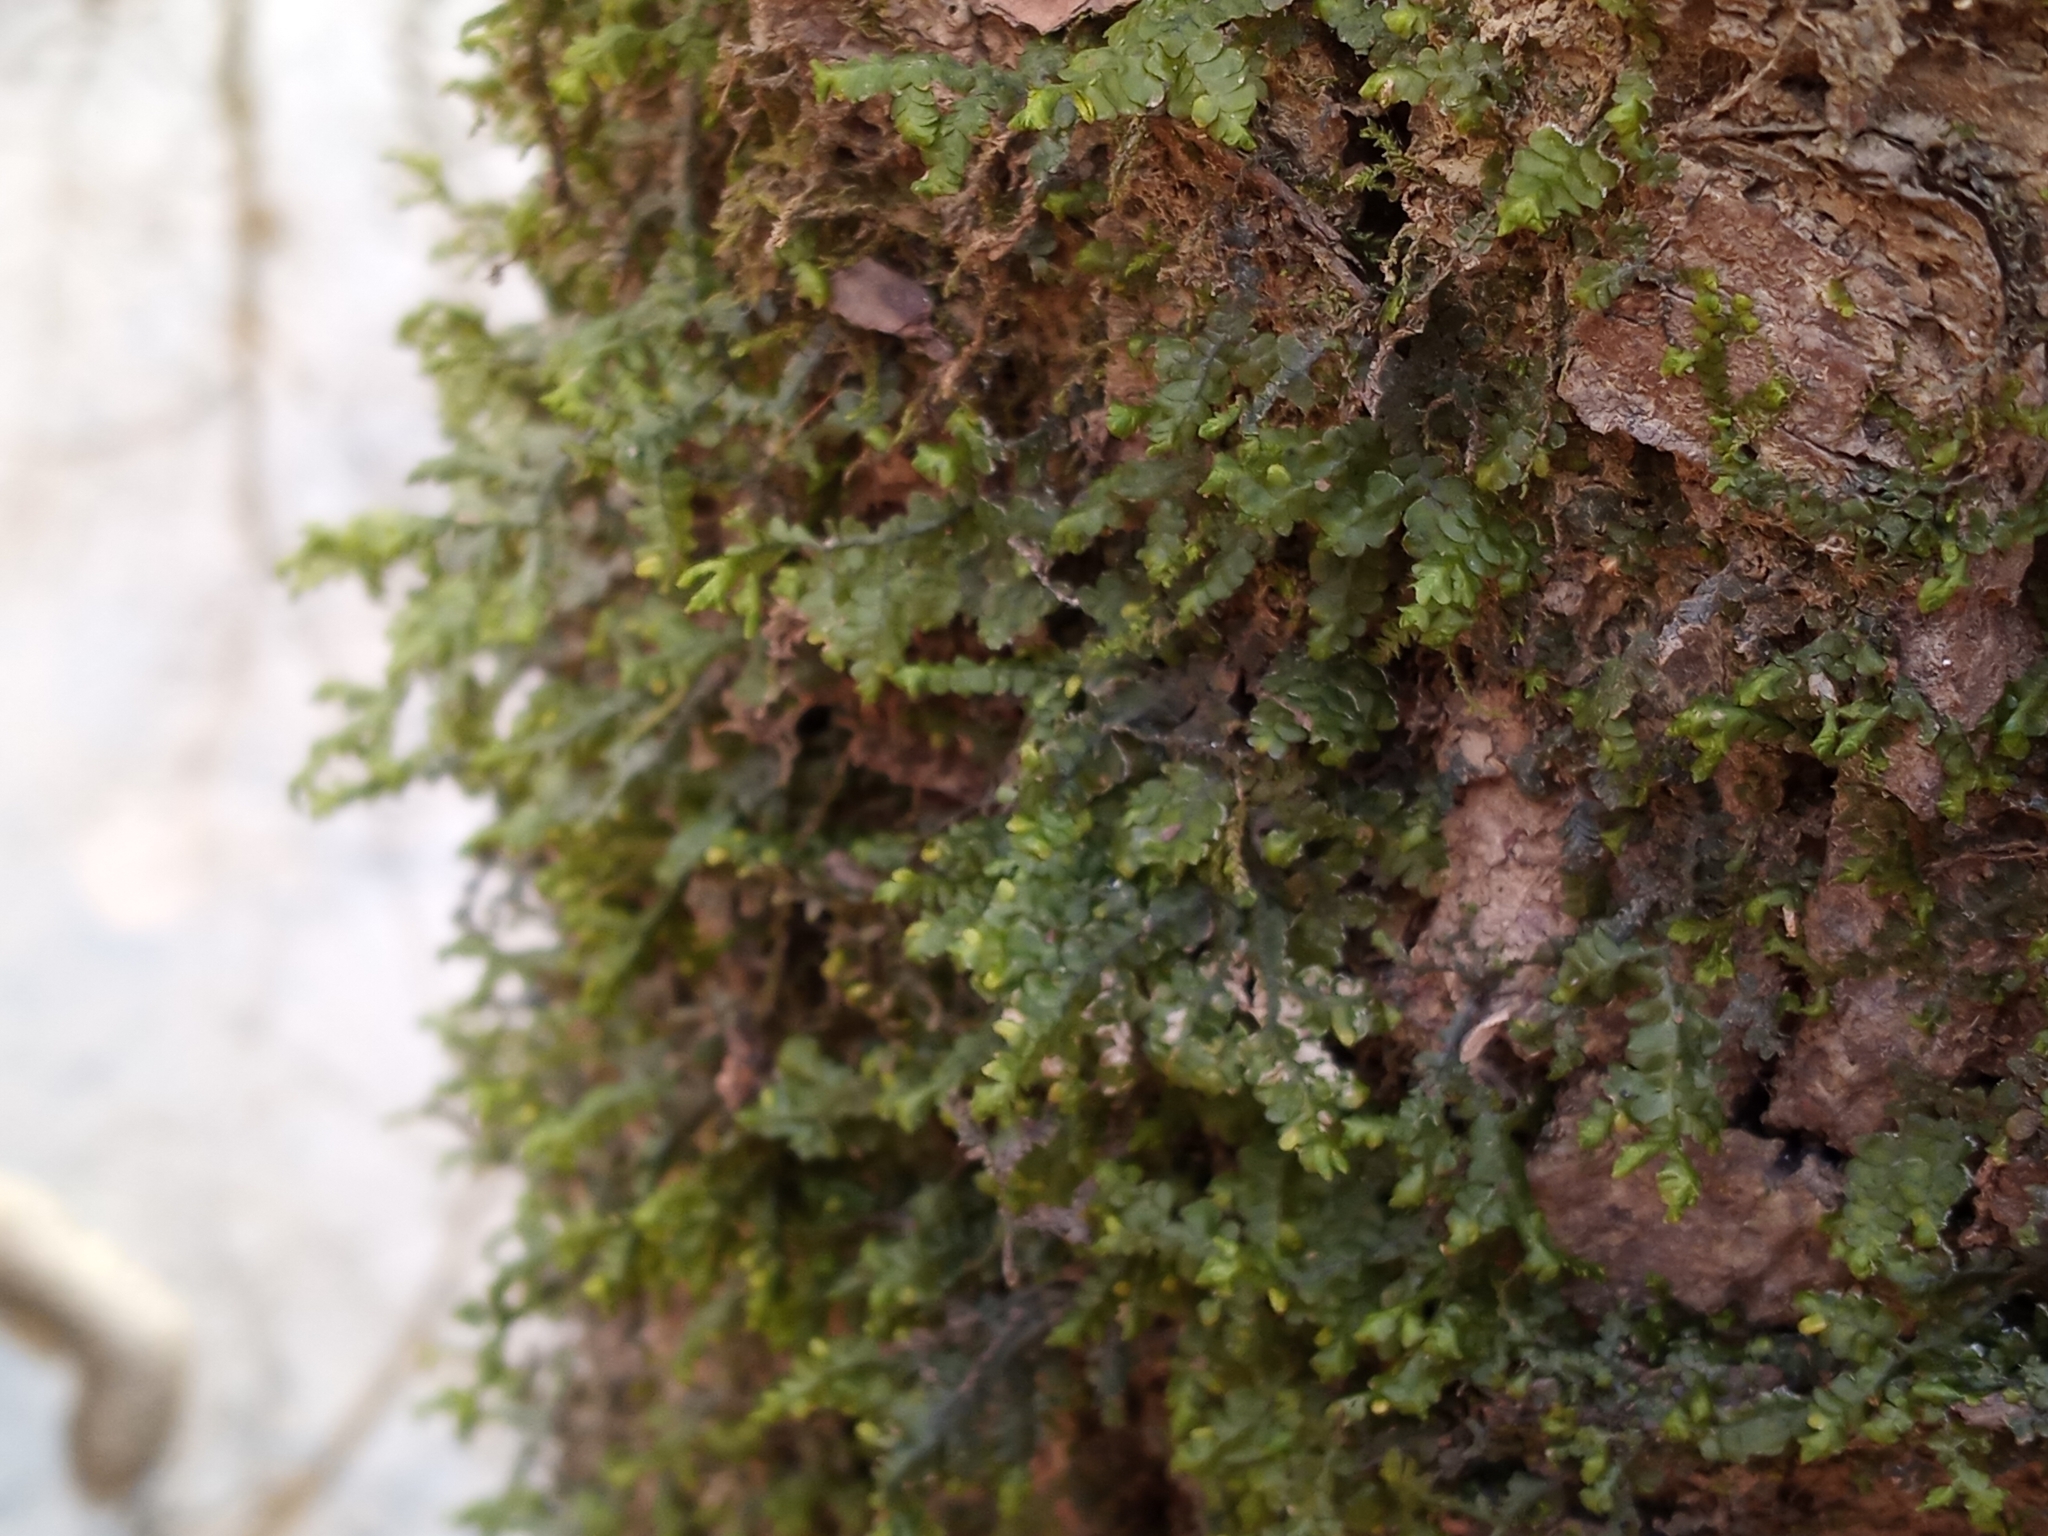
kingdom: Plantae
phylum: Marchantiophyta
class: Jungermanniopsida
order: Porellales
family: Porellaceae
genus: Porella
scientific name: Porella pinnata
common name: Pinnate scalewort
